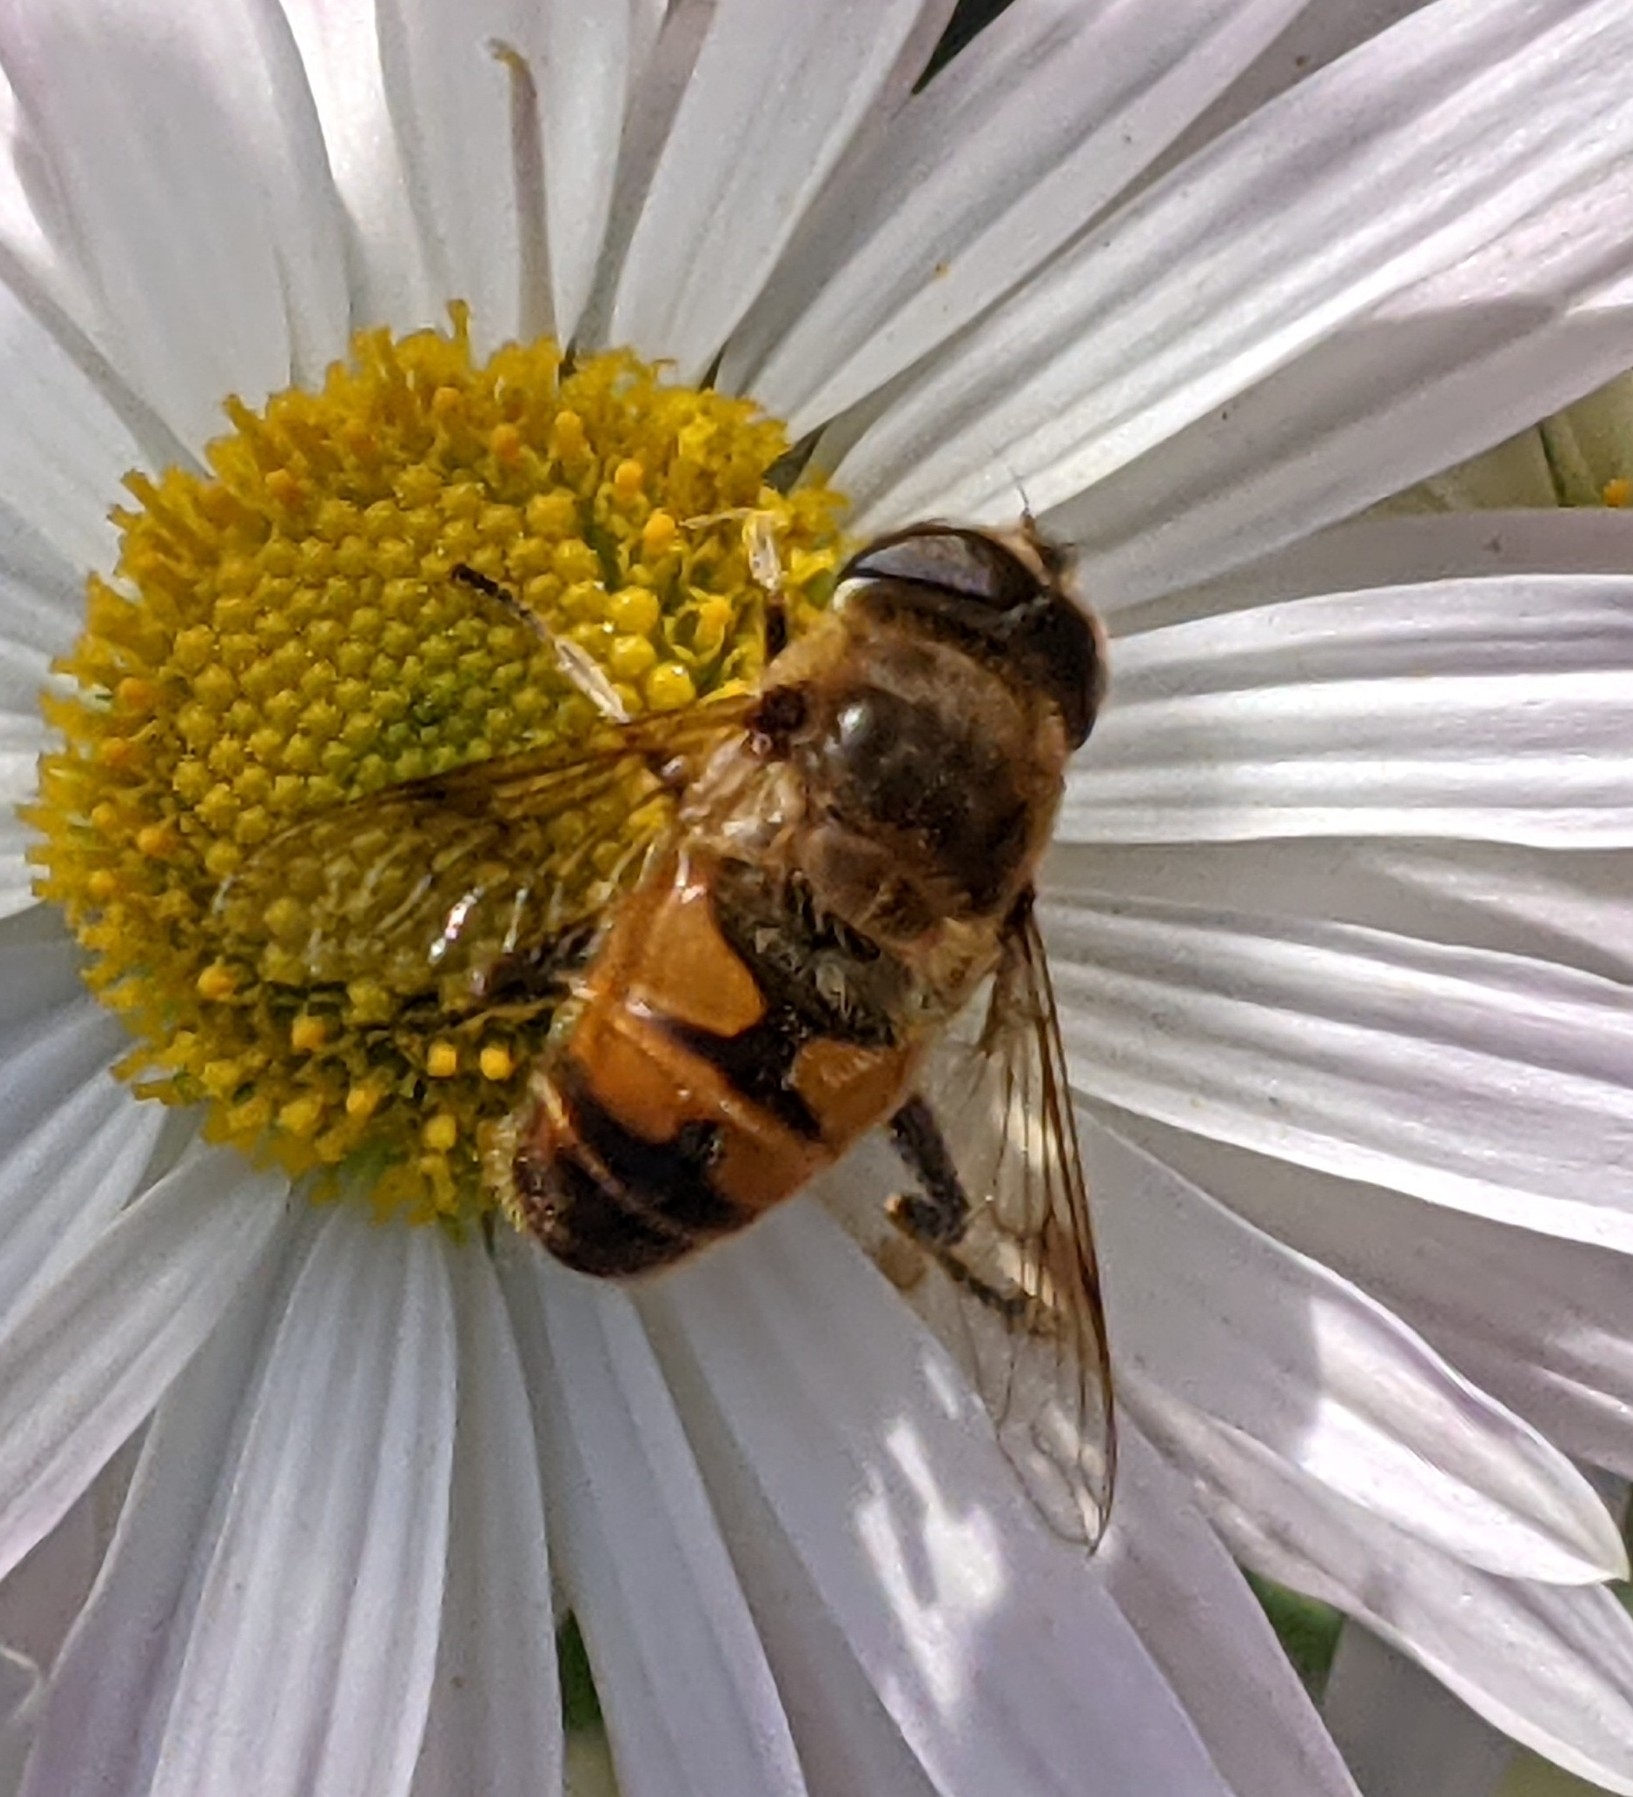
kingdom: Animalia
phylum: Arthropoda
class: Insecta
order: Diptera
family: Syrphidae
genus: Eristalis
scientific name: Eristalis tenax
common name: Drone fly
